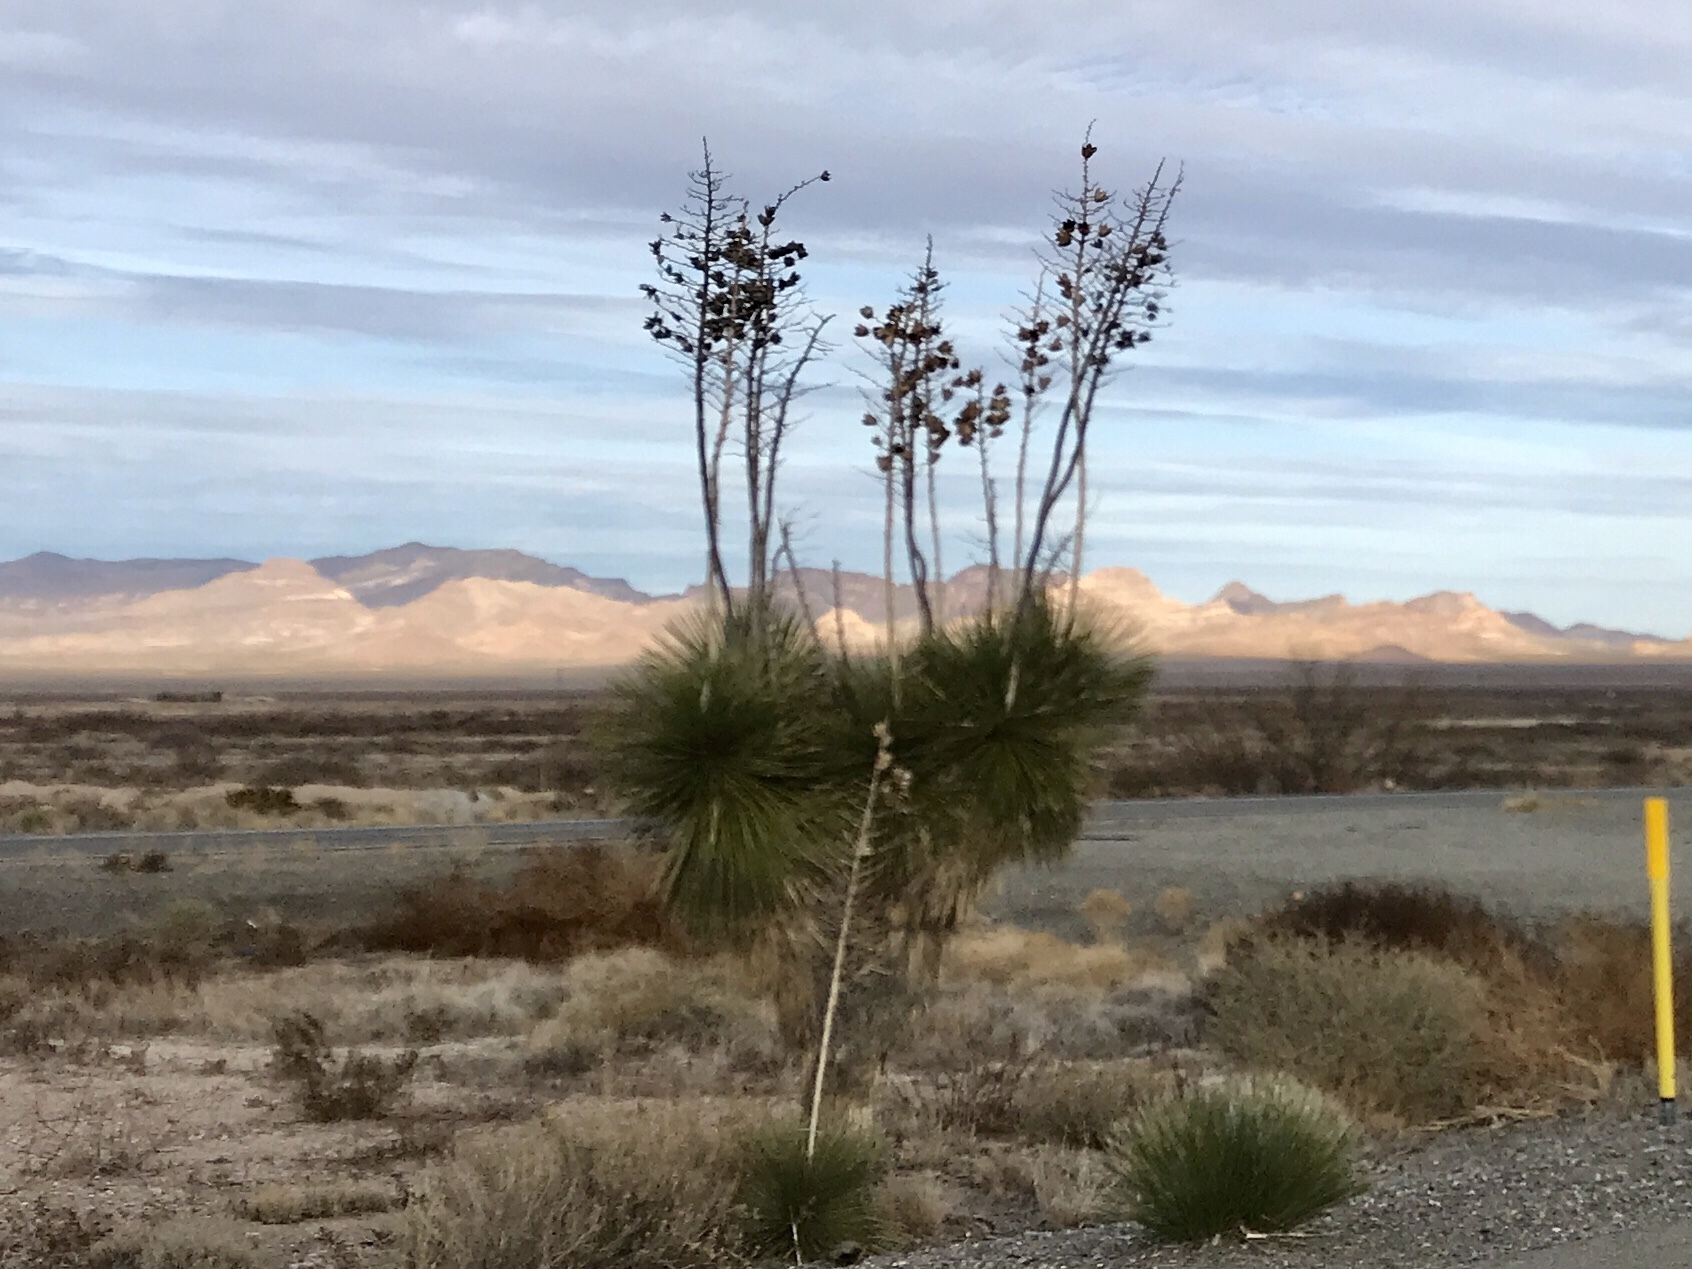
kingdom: Plantae
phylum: Tracheophyta
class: Liliopsida
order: Asparagales
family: Asparagaceae
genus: Yucca
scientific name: Yucca elata
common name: Palmella
